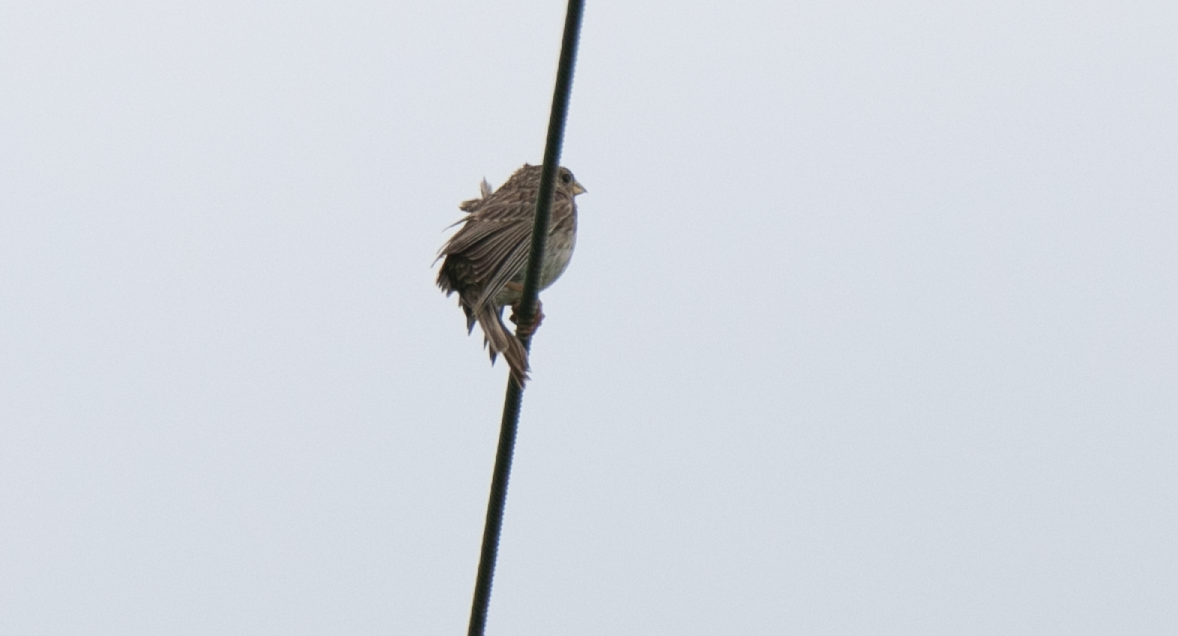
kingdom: Animalia
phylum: Chordata
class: Aves
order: Passeriformes
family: Emberizidae
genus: Emberiza
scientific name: Emberiza calandra
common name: Corn bunting
